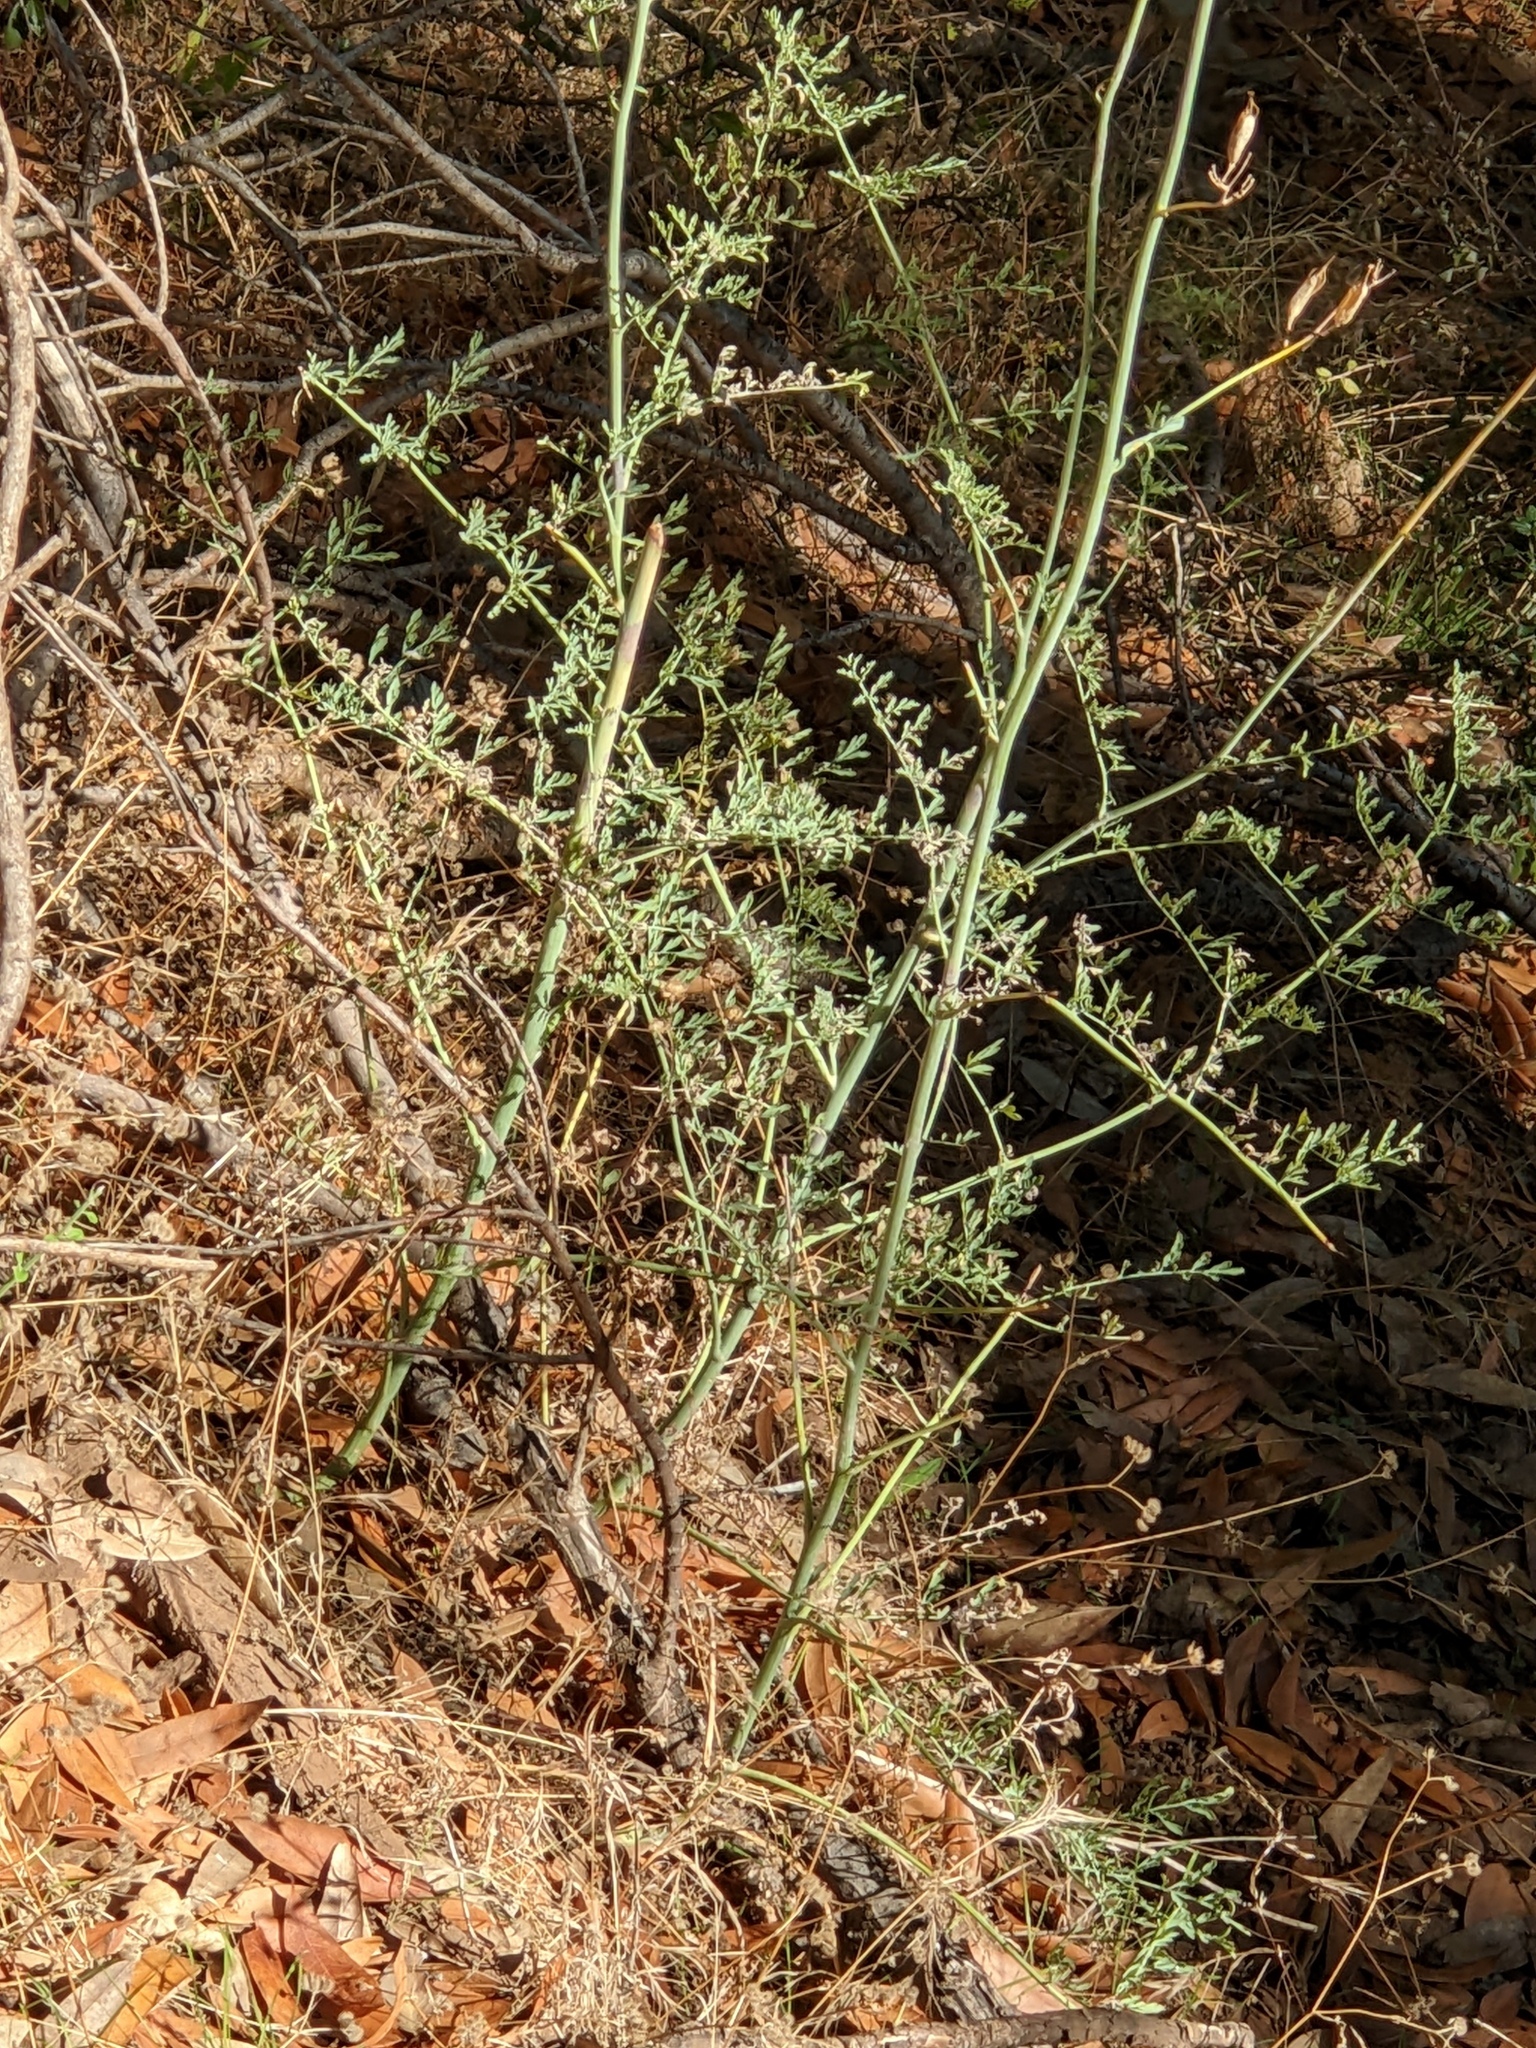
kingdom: Plantae
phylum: Tracheophyta
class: Magnoliopsida
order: Ranunculales
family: Papaveraceae
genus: Ehrendorferia
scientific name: Ehrendorferia chrysantha
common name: Golden eardrops
